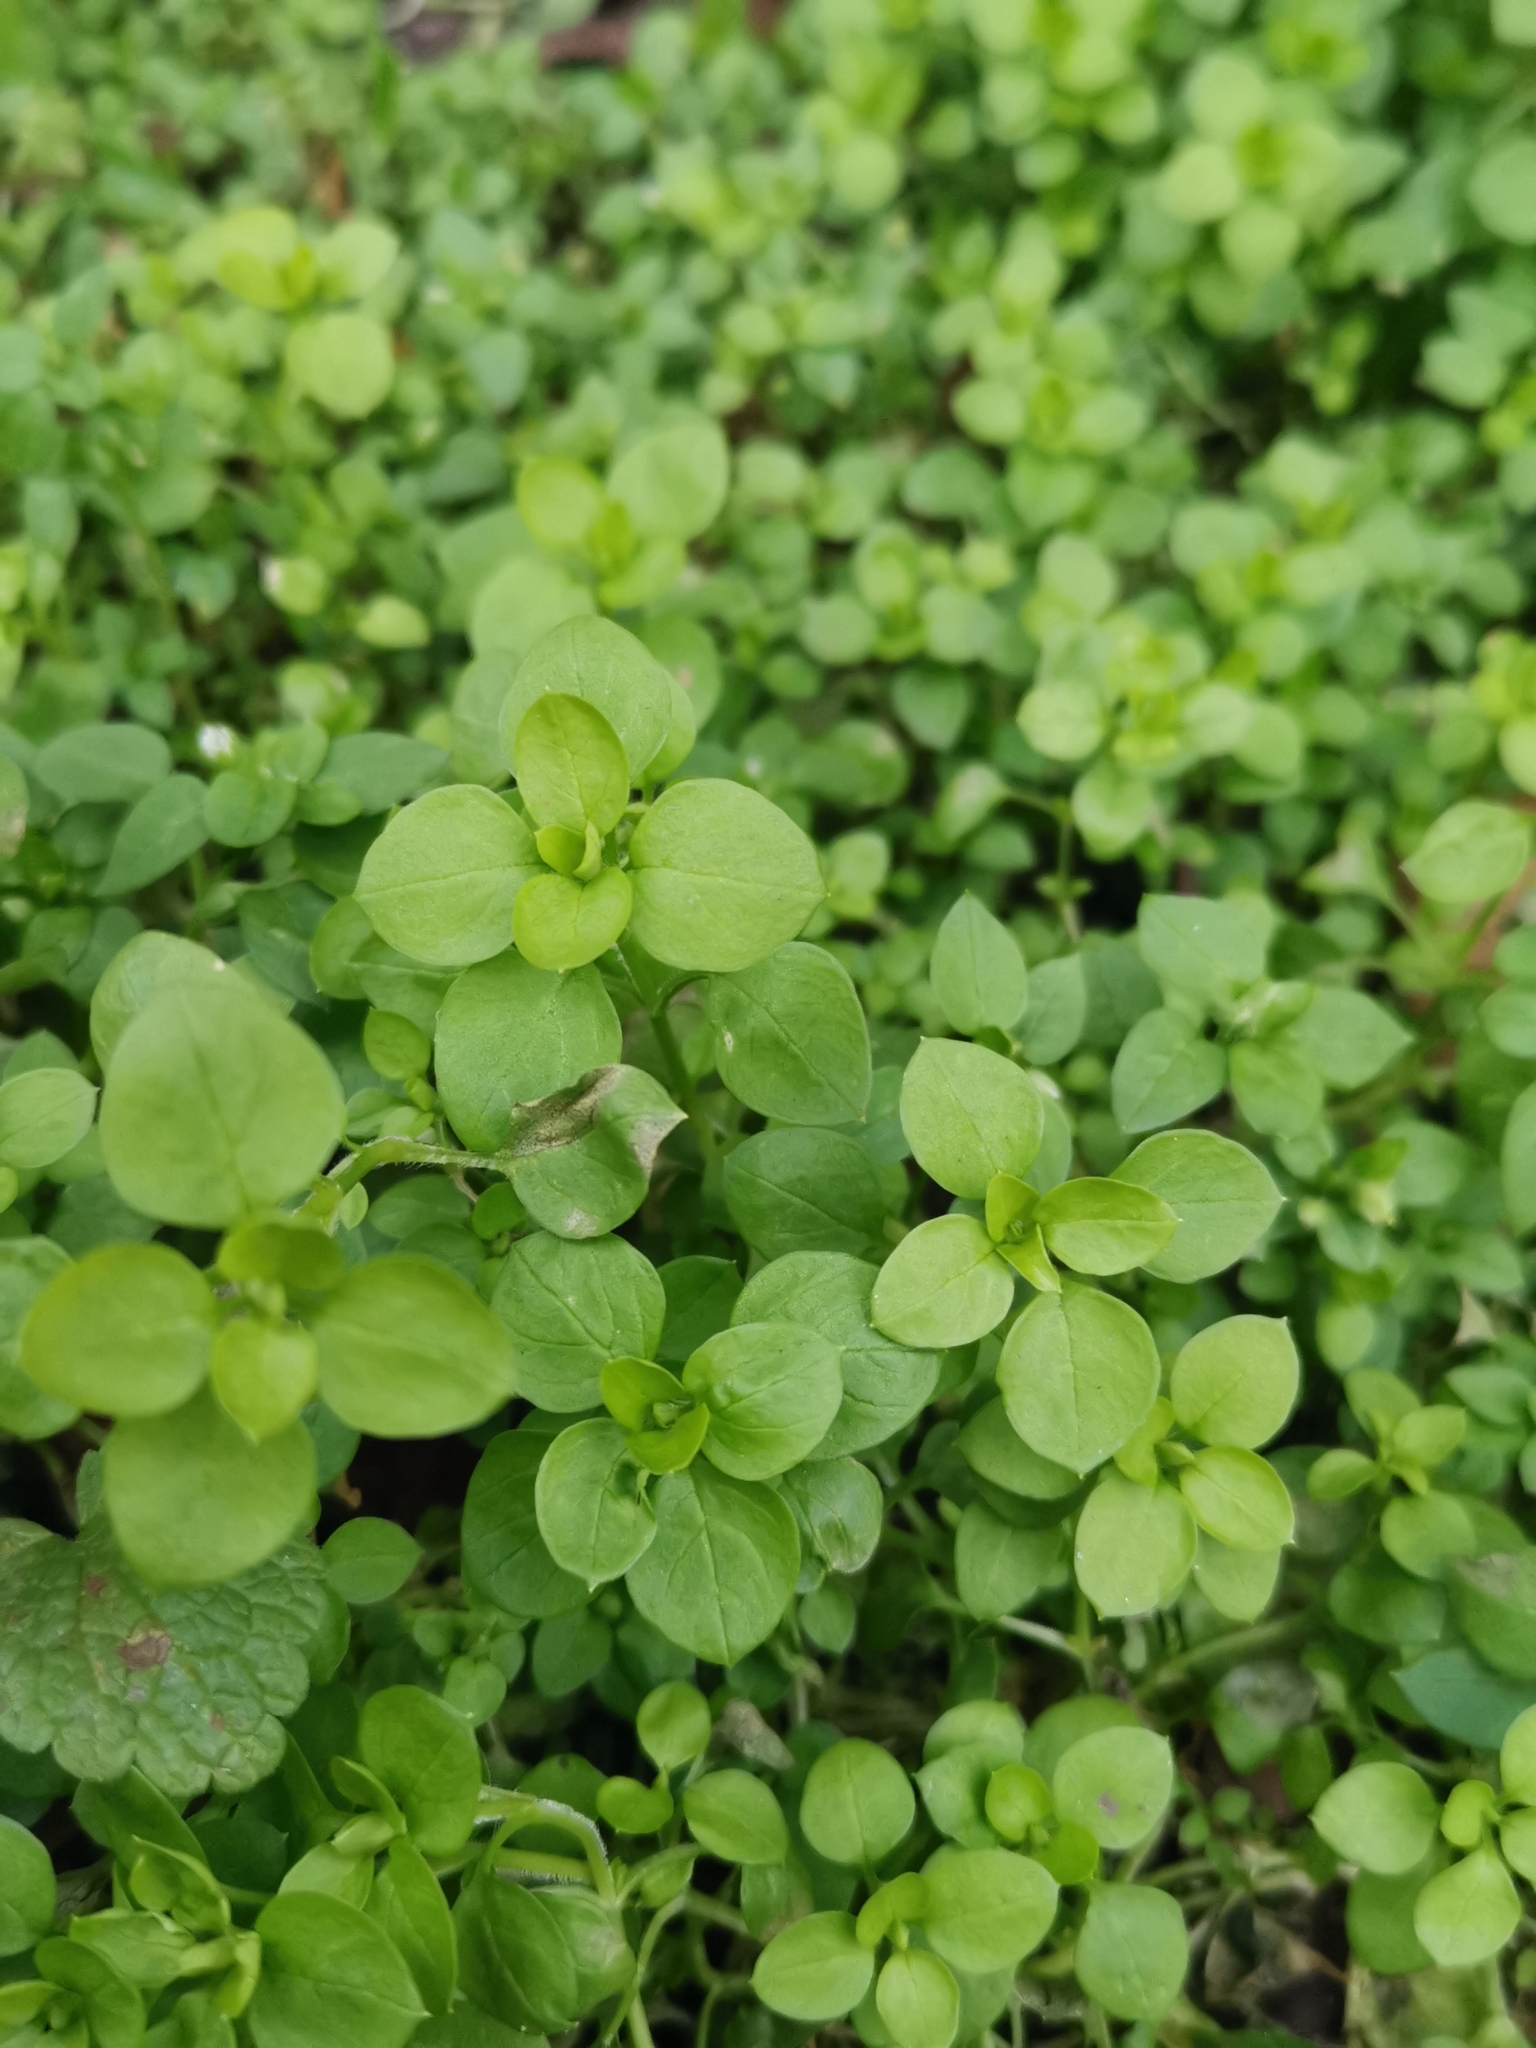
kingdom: Plantae
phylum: Tracheophyta
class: Magnoliopsida
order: Caryophyllales
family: Caryophyllaceae
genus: Stellaria
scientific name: Stellaria media
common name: Common chickweed
